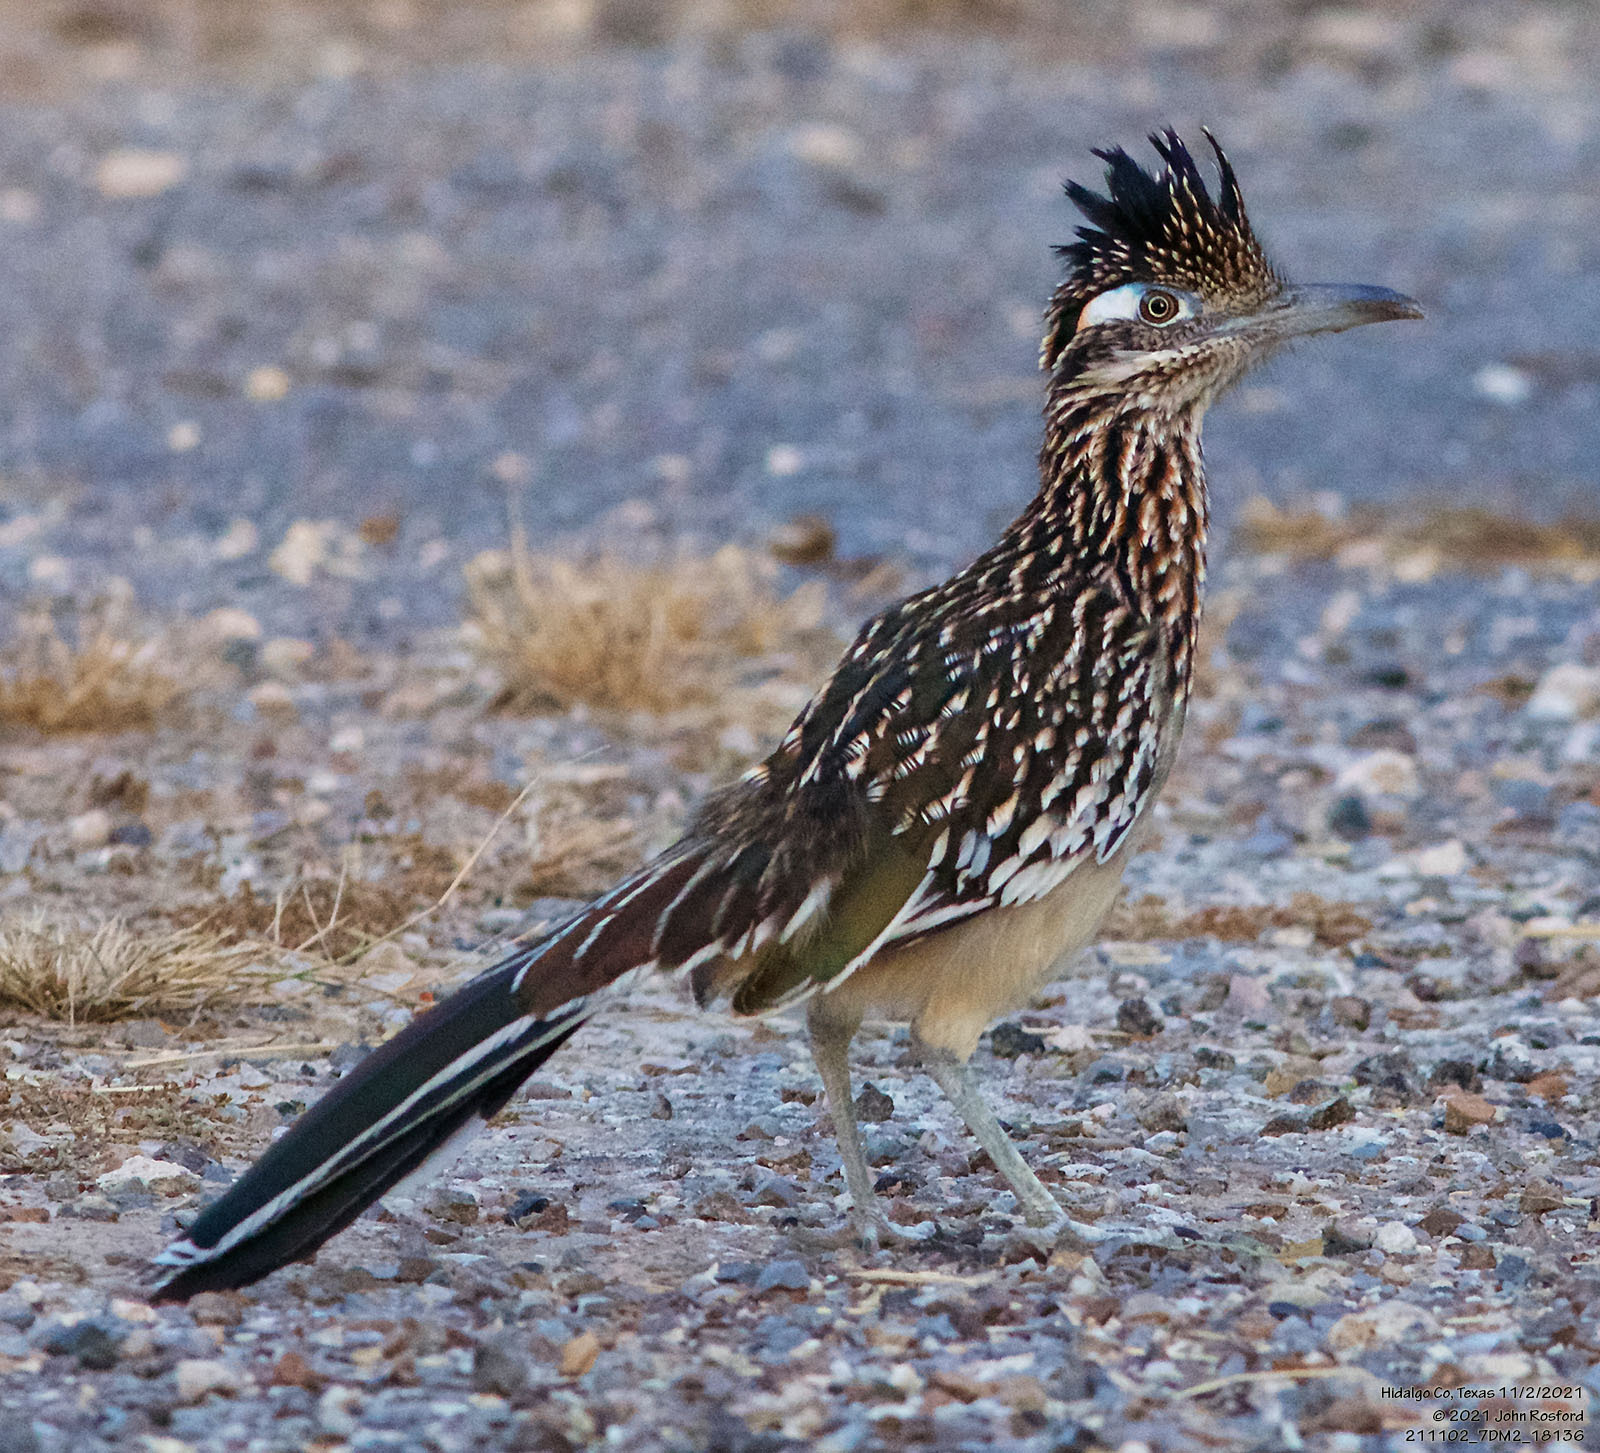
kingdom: Animalia
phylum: Chordata
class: Aves
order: Cuculiformes
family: Cuculidae
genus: Geococcyx
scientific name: Geococcyx californianus
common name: Greater roadrunner
